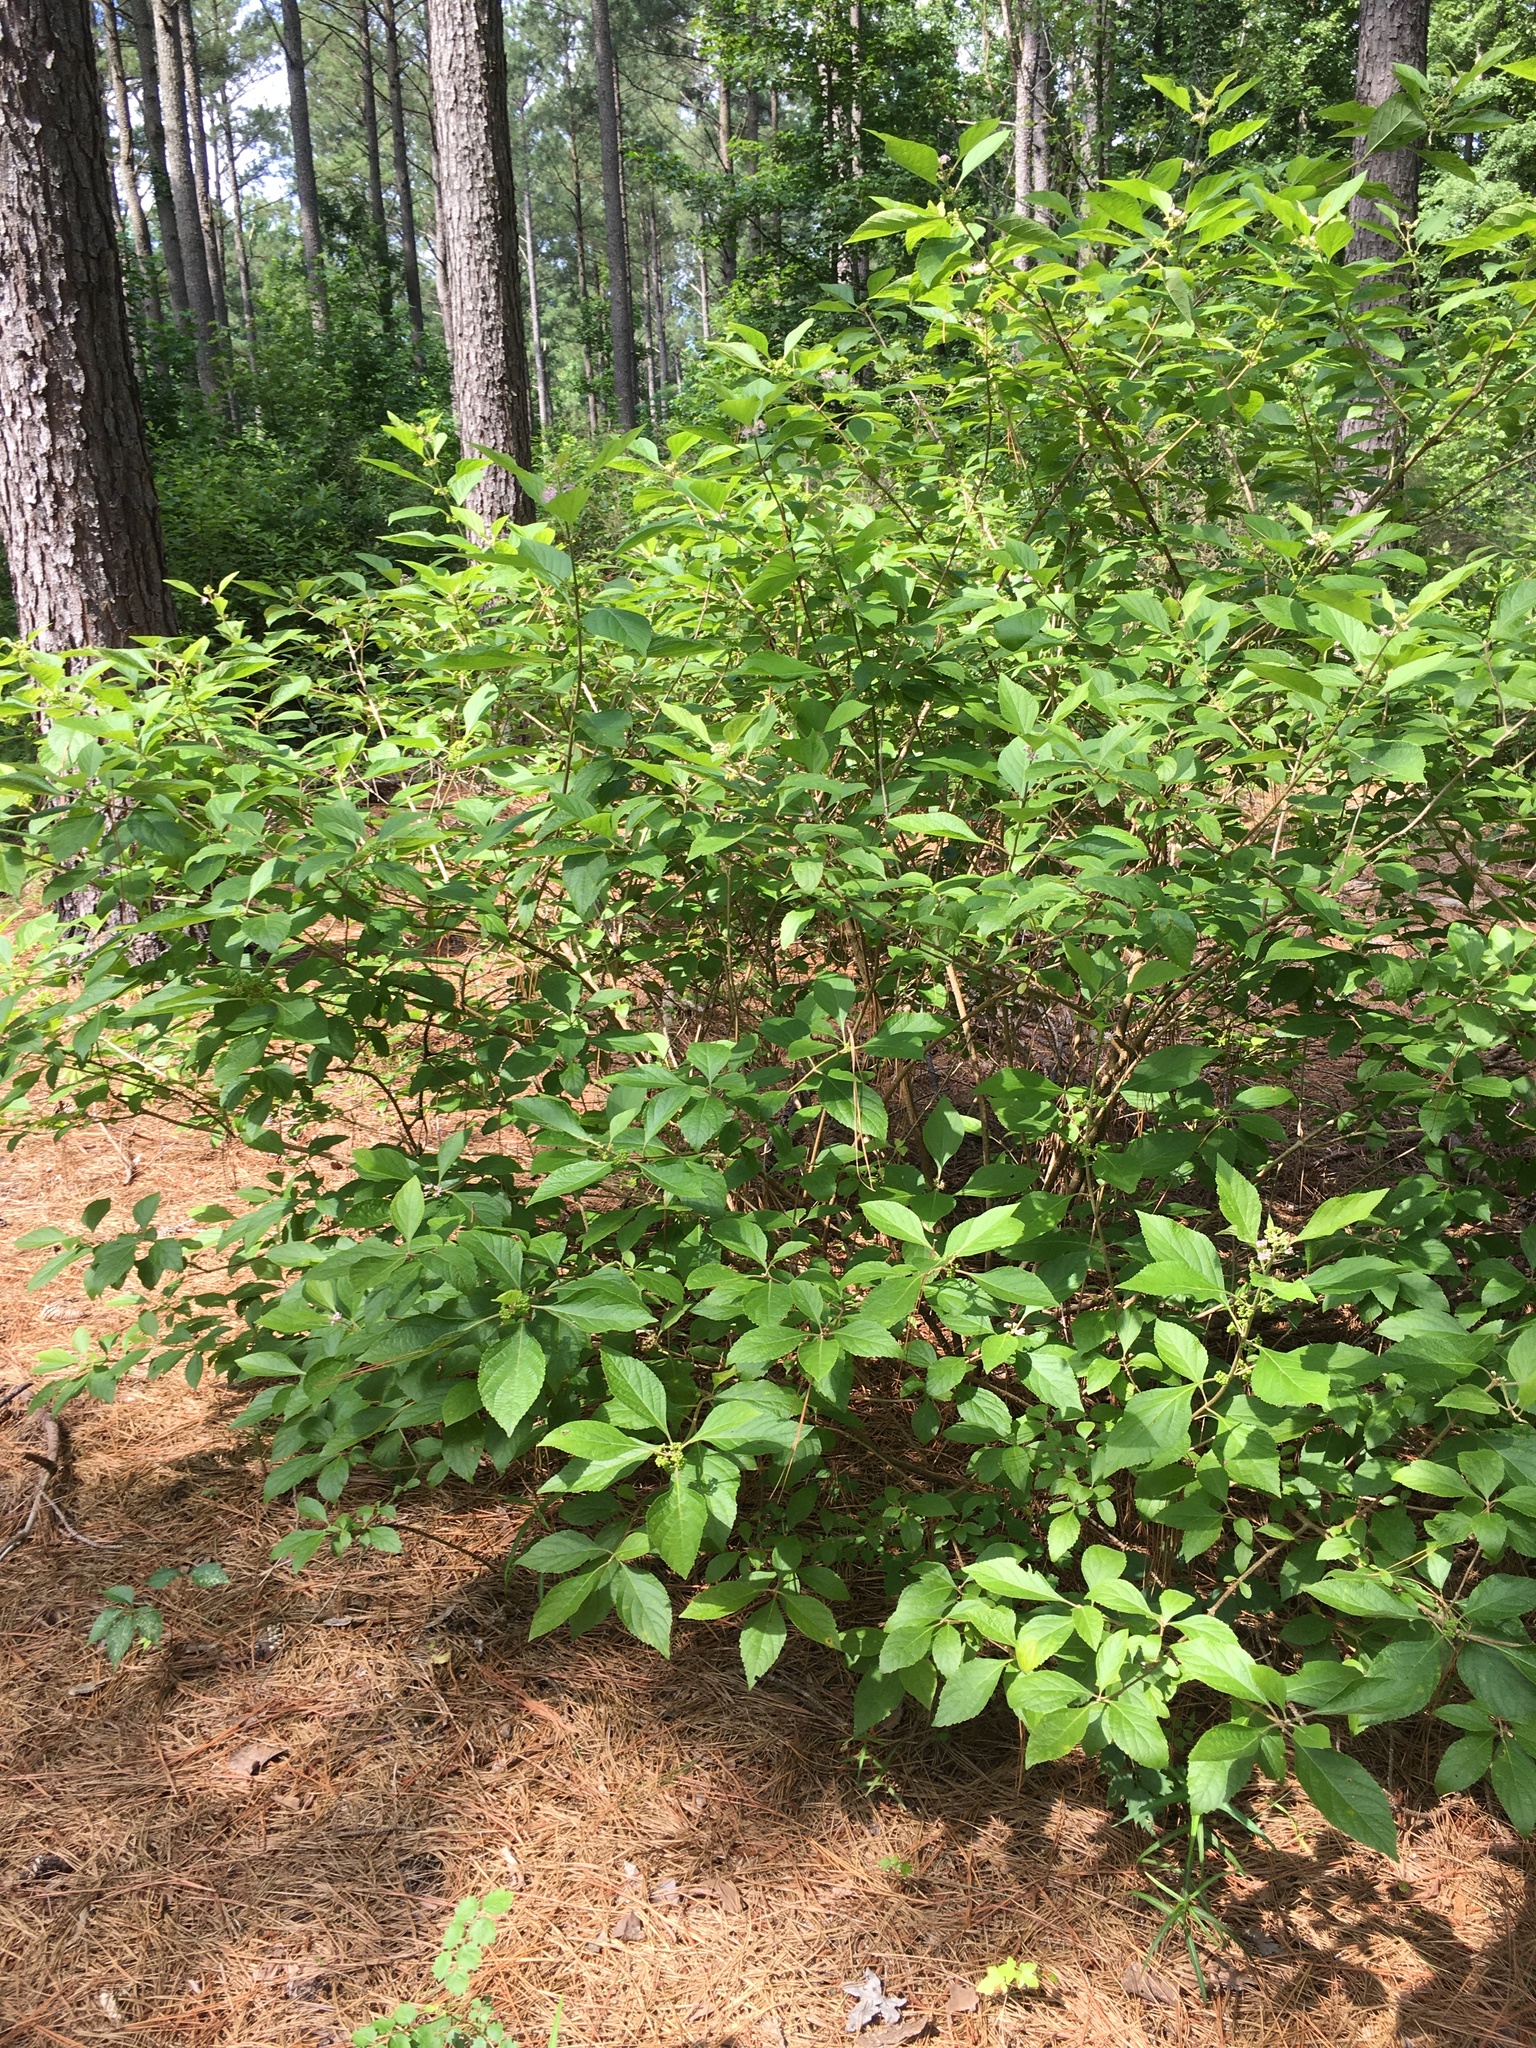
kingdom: Plantae
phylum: Tracheophyta
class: Magnoliopsida
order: Lamiales
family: Lamiaceae
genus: Callicarpa
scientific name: Callicarpa americana
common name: American beautyberry
